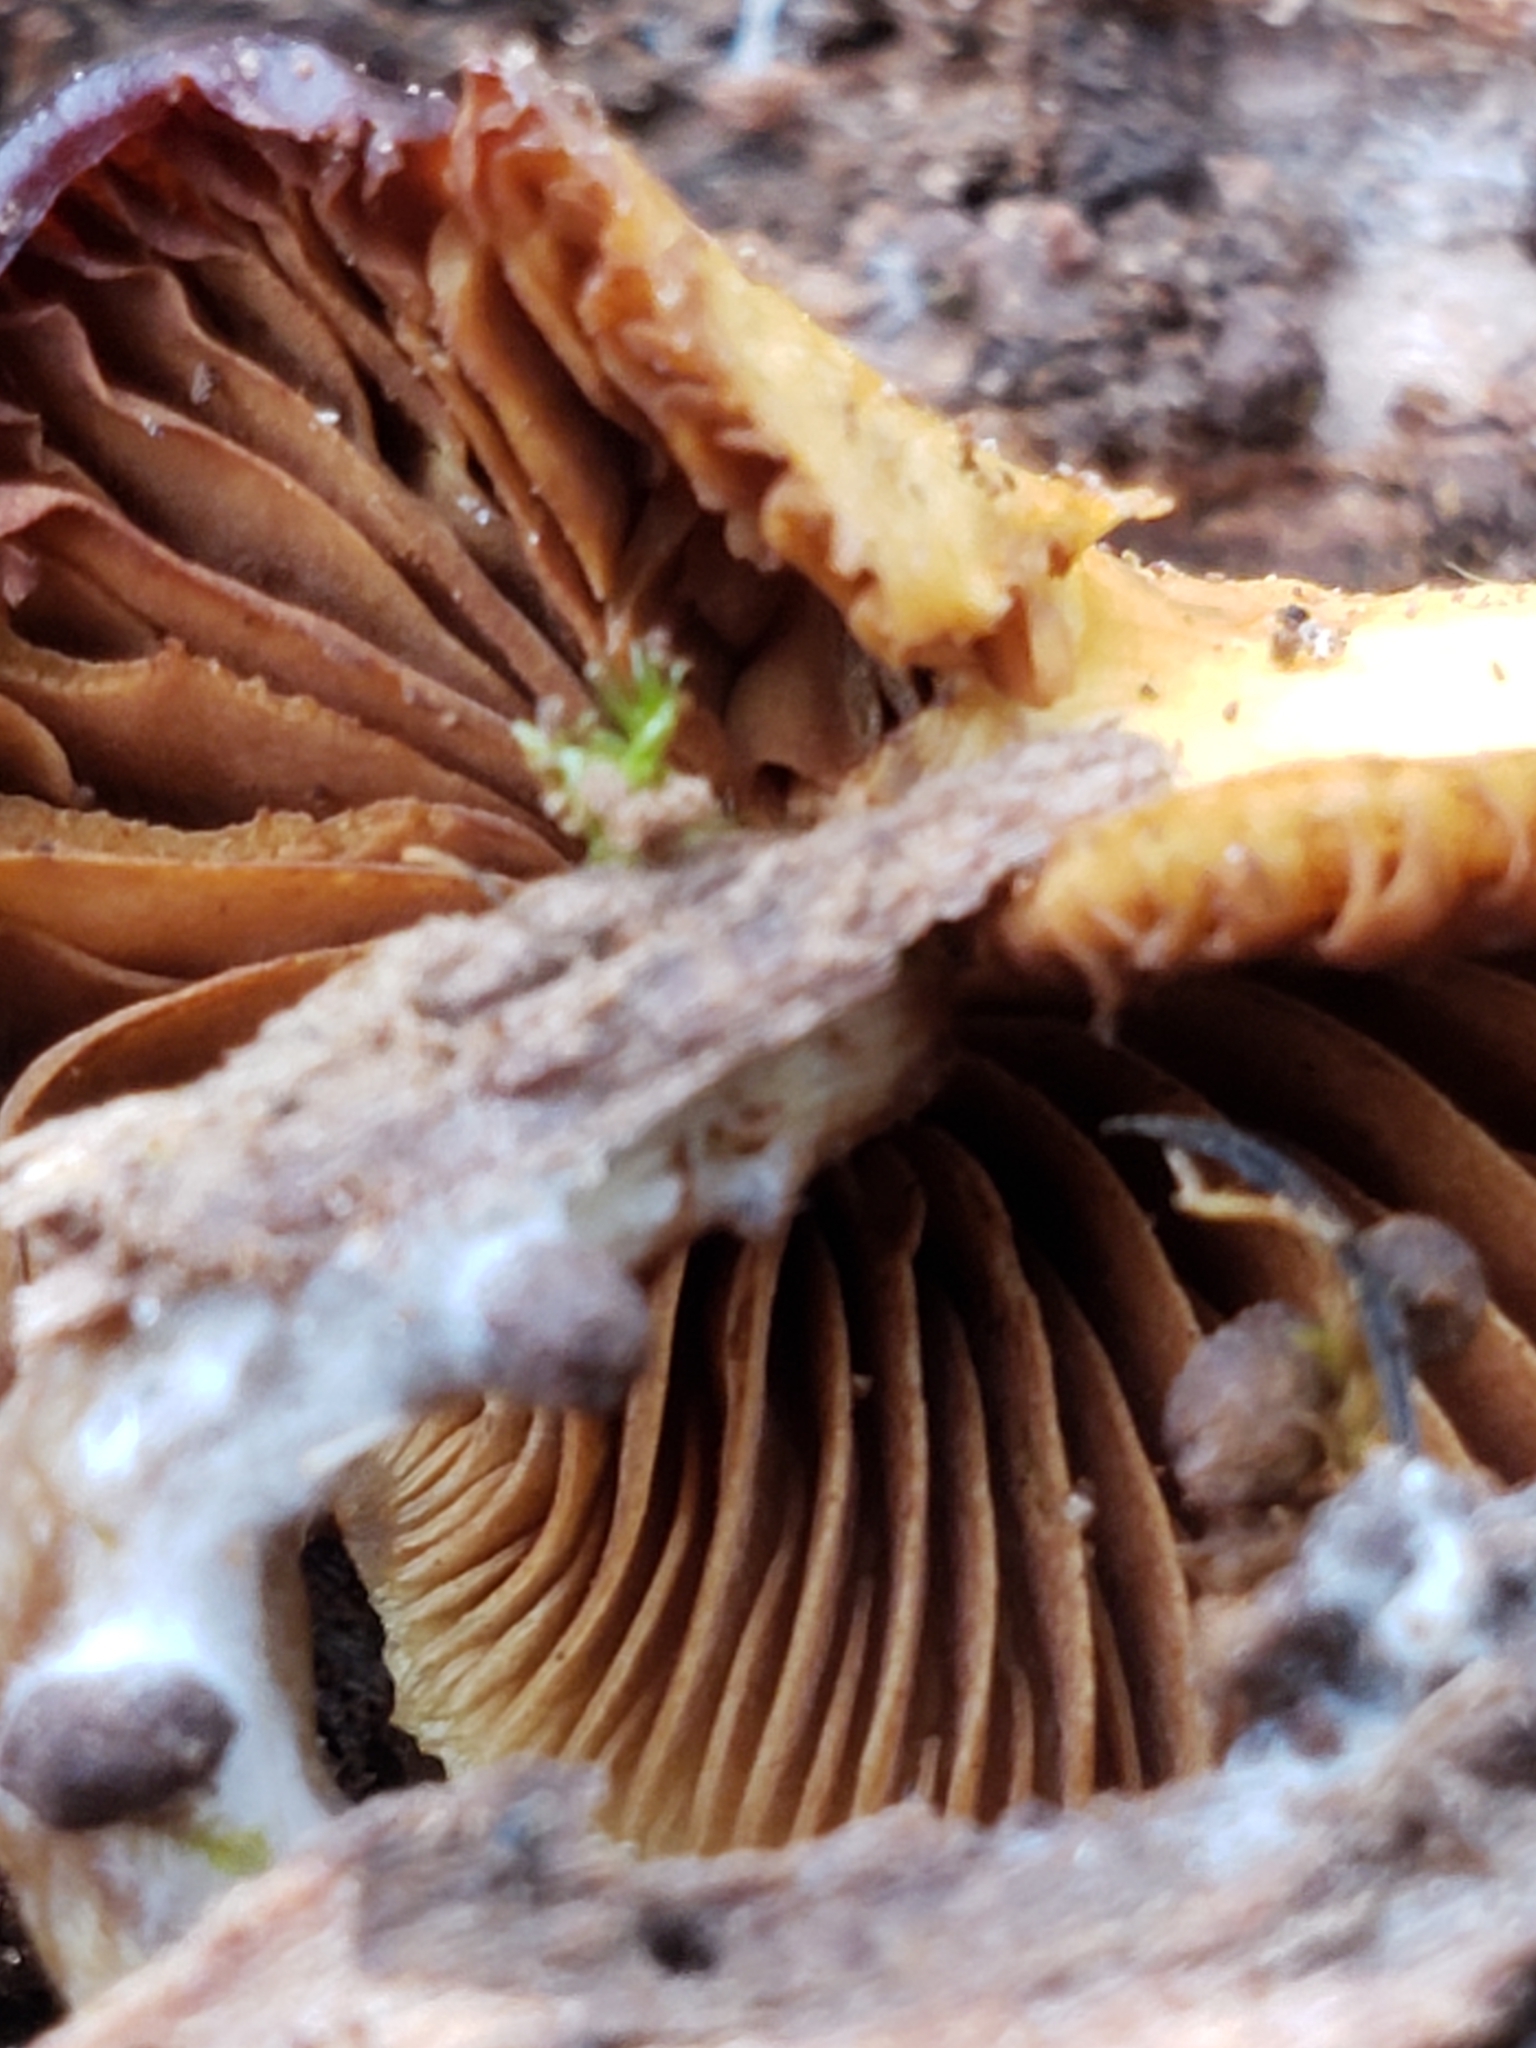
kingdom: Fungi
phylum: Basidiomycota
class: Agaricomycetes
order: Agaricales
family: Hymenogastraceae
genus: Galerina
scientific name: Galerina marginata
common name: Funeral bell
